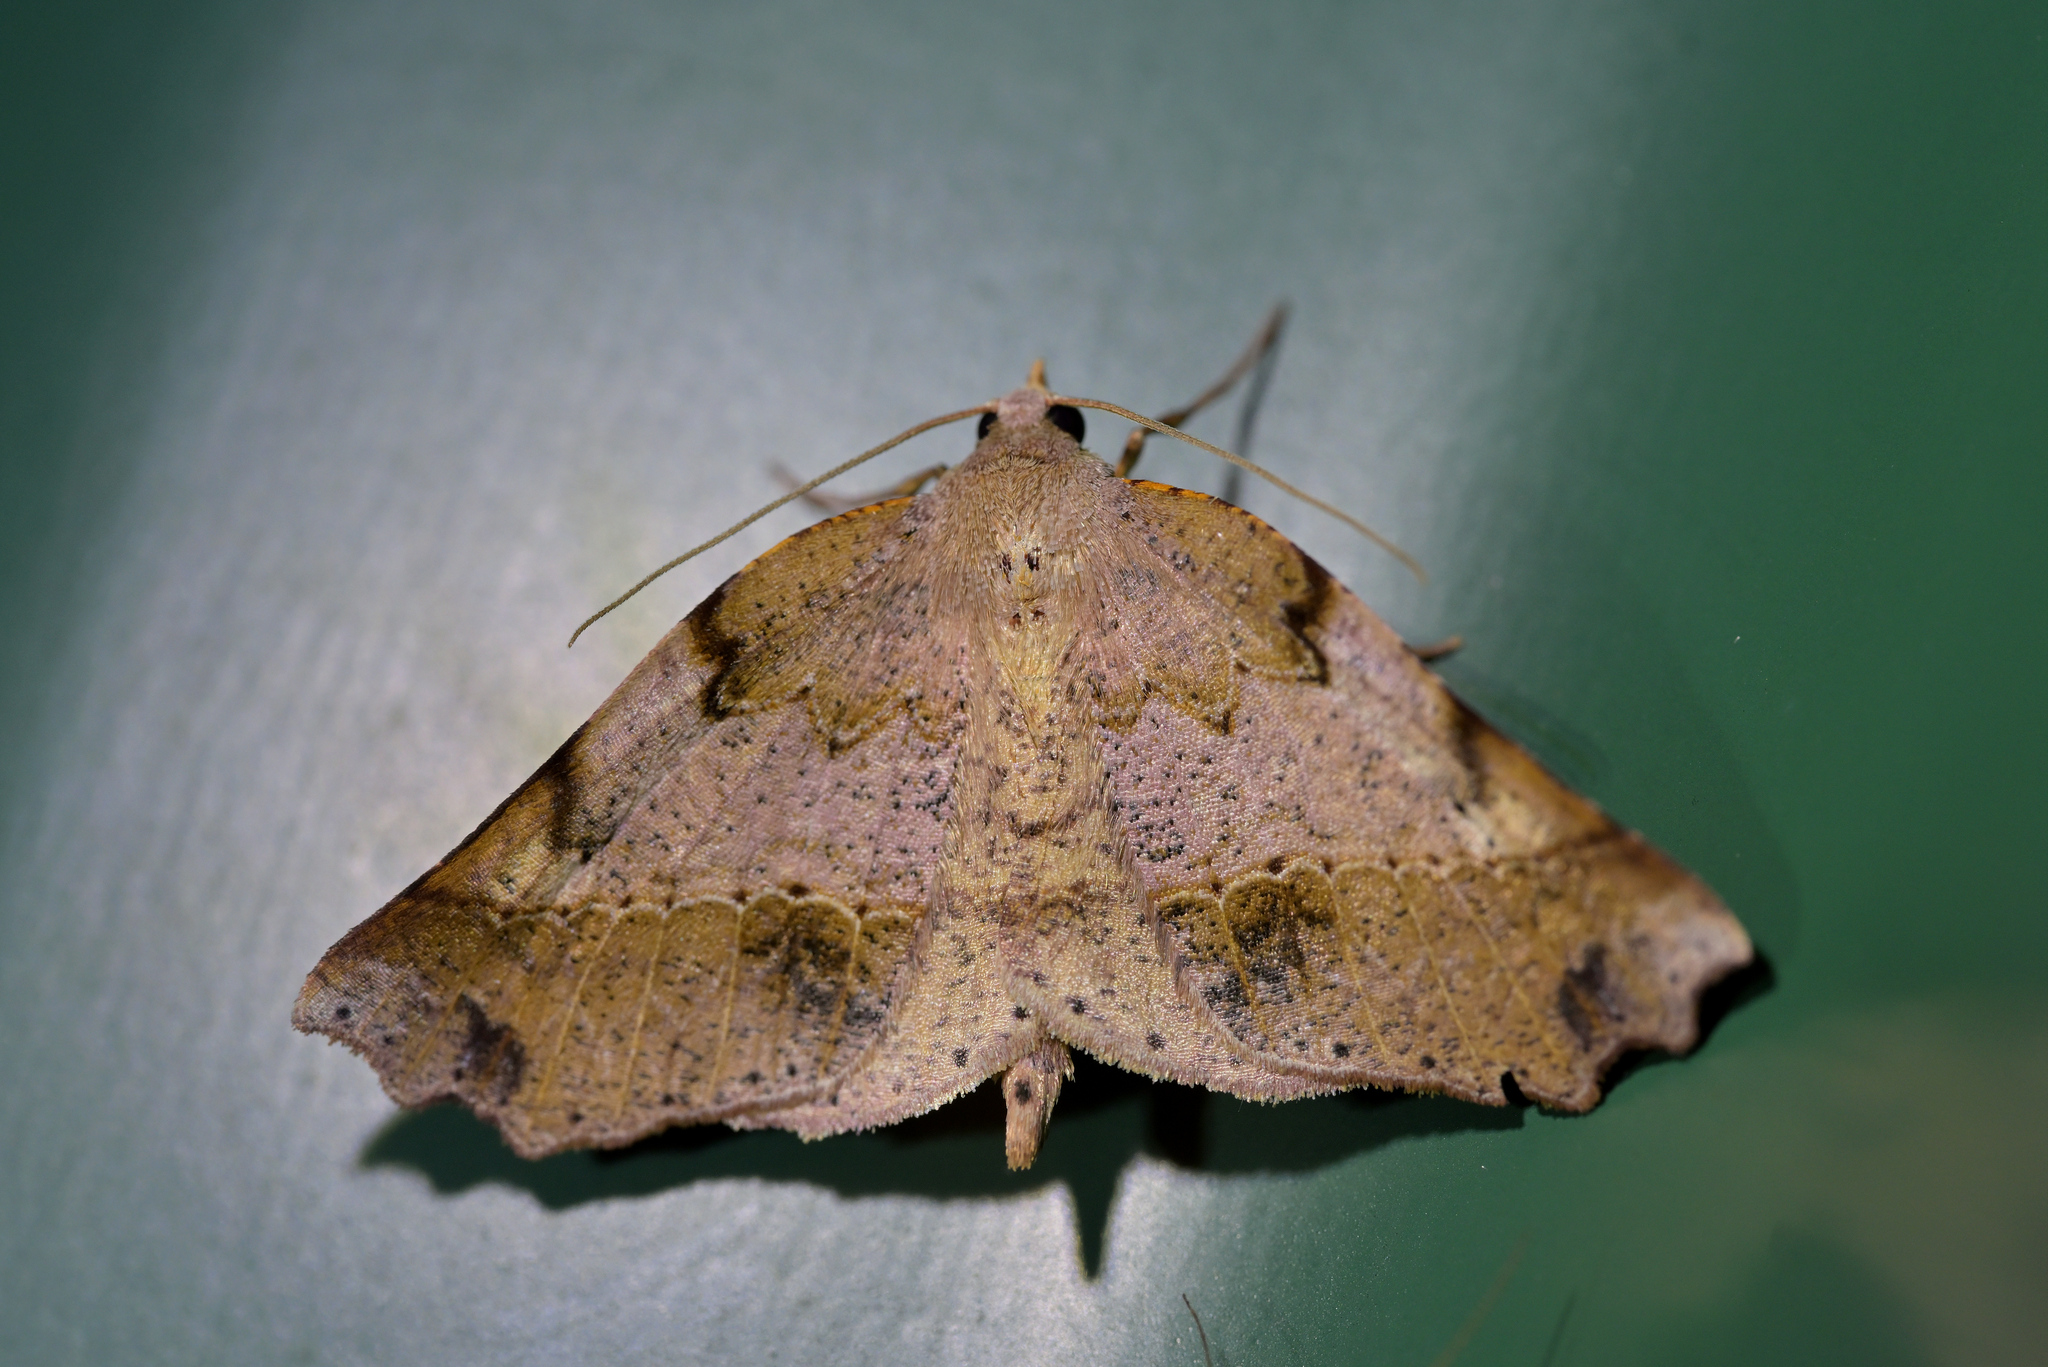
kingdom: Animalia
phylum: Arthropoda
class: Insecta
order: Lepidoptera
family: Geometridae
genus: Ischalis
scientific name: Ischalis gallaria
